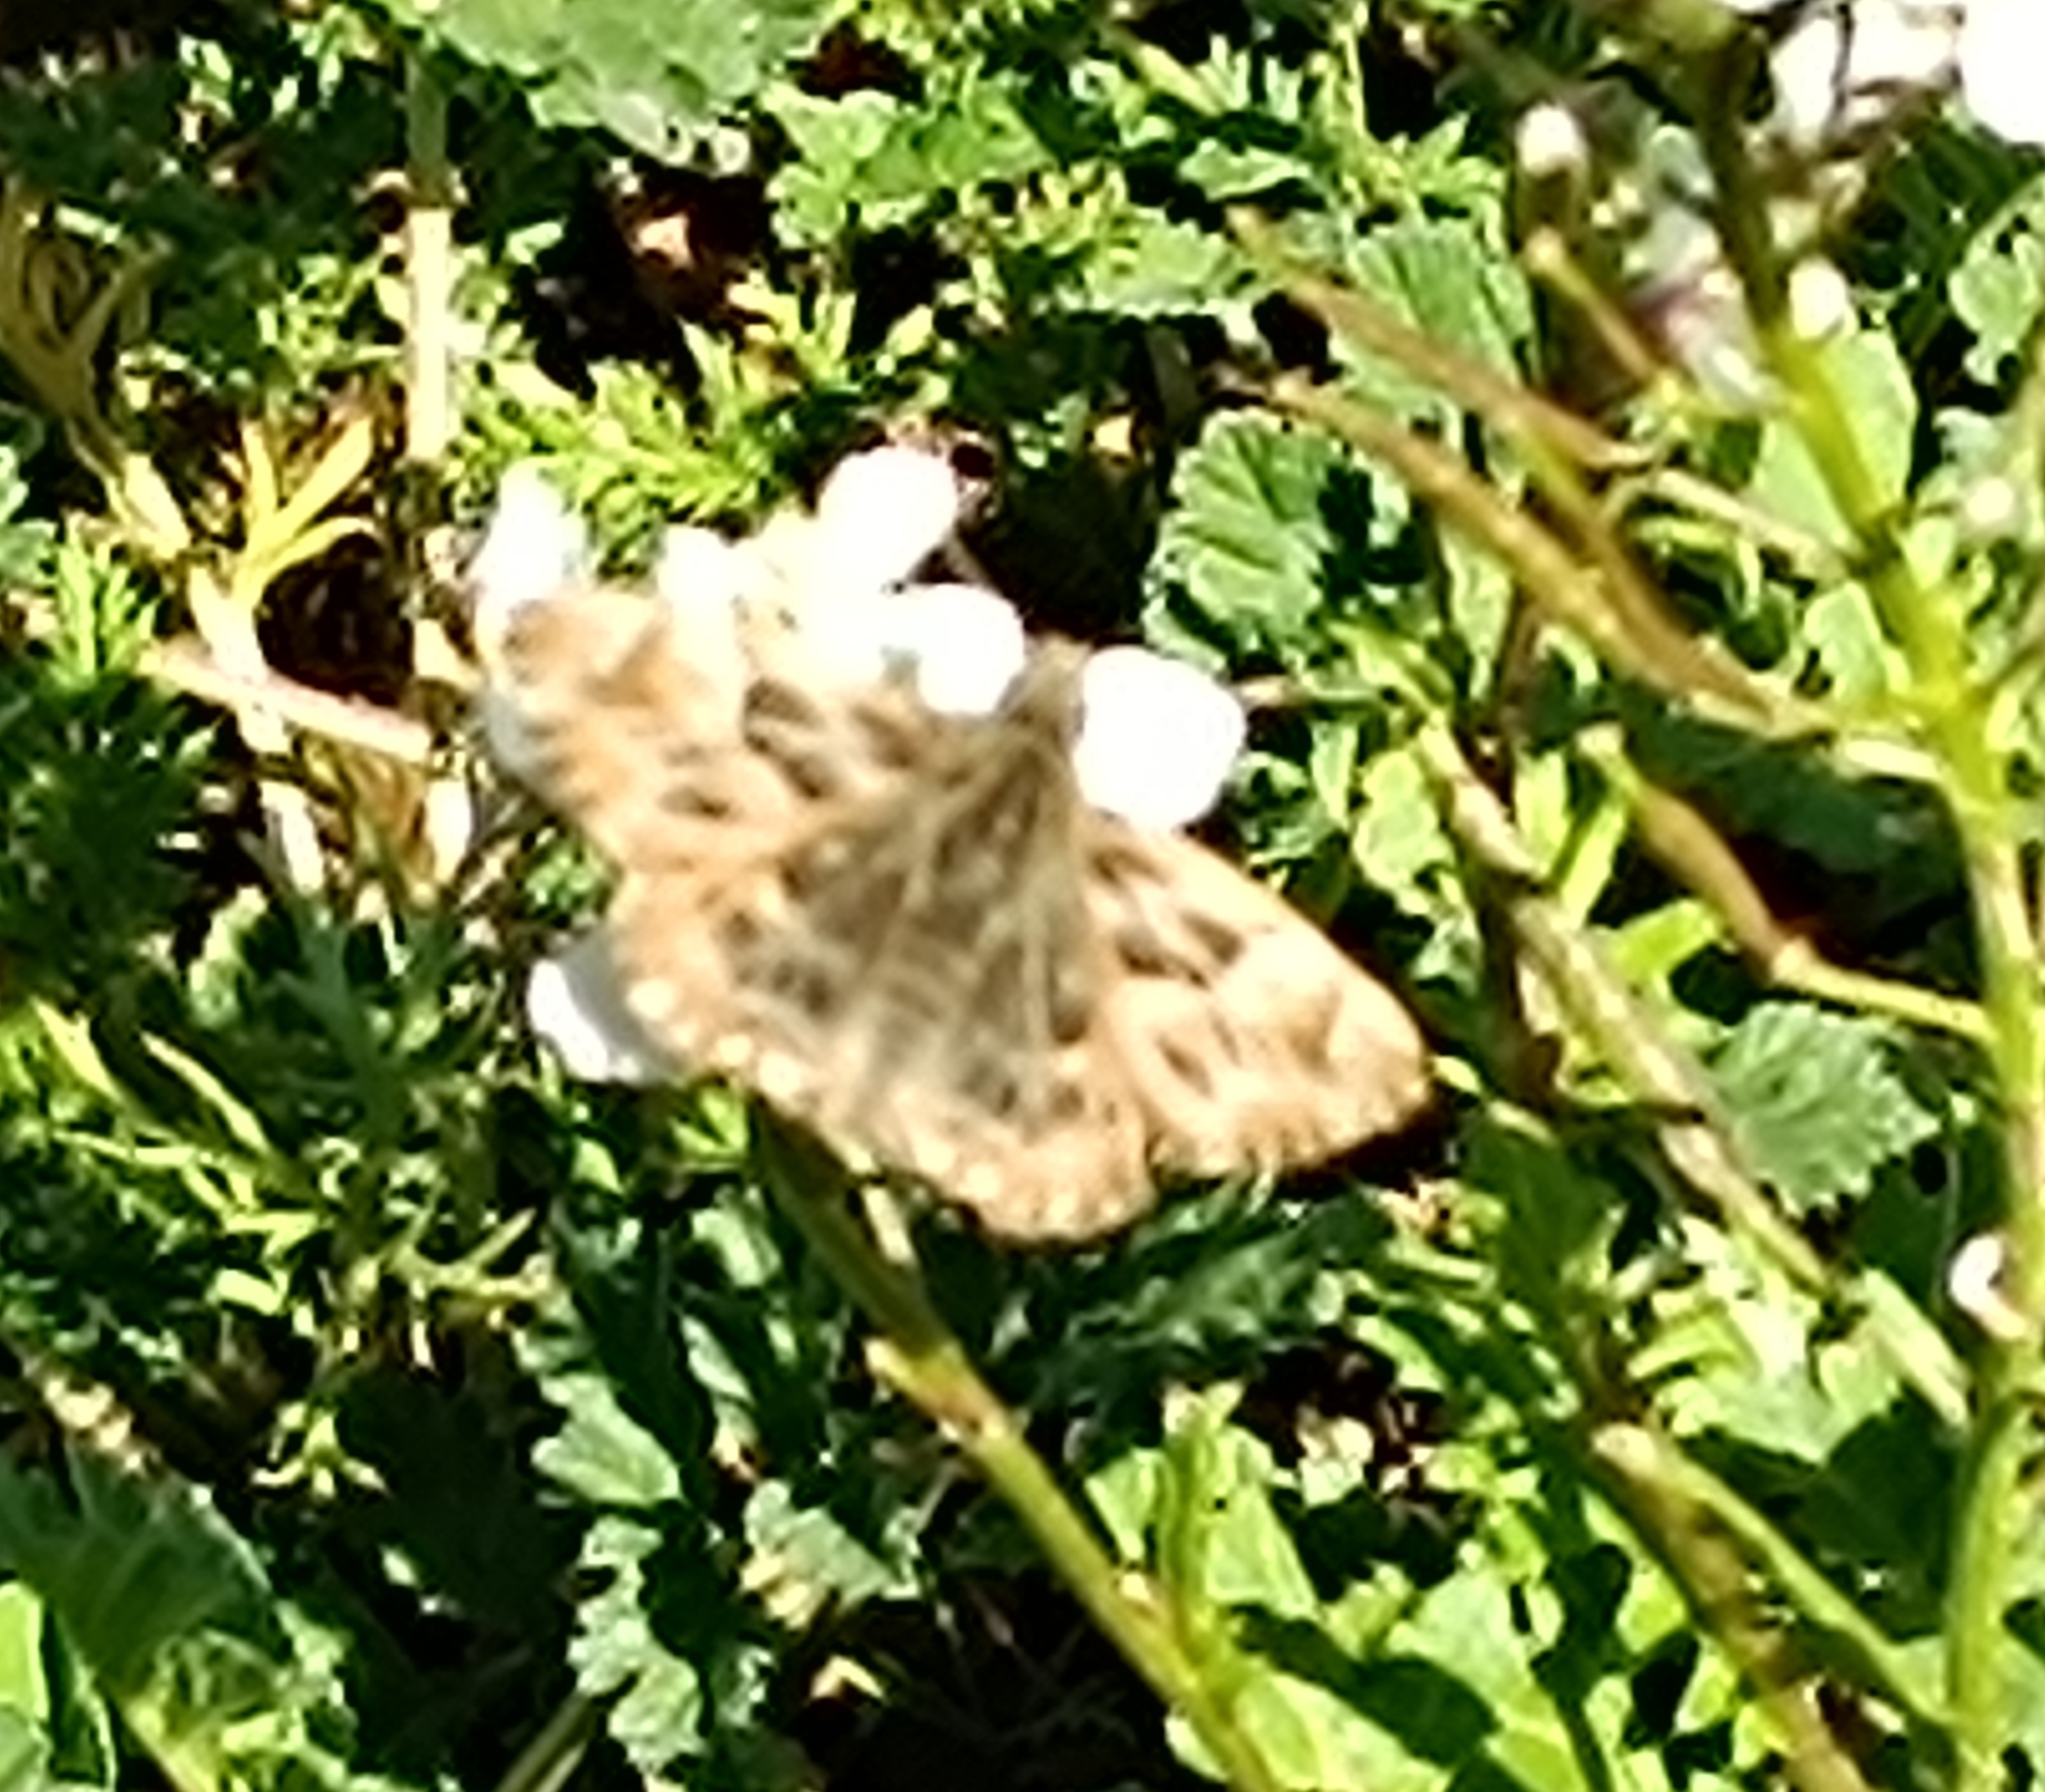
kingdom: Animalia
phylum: Arthropoda
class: Insecta
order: Lepidoptera
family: Hesperiidae
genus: Carcharodus
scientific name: Carcharodus alceae
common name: Mallow skipper
